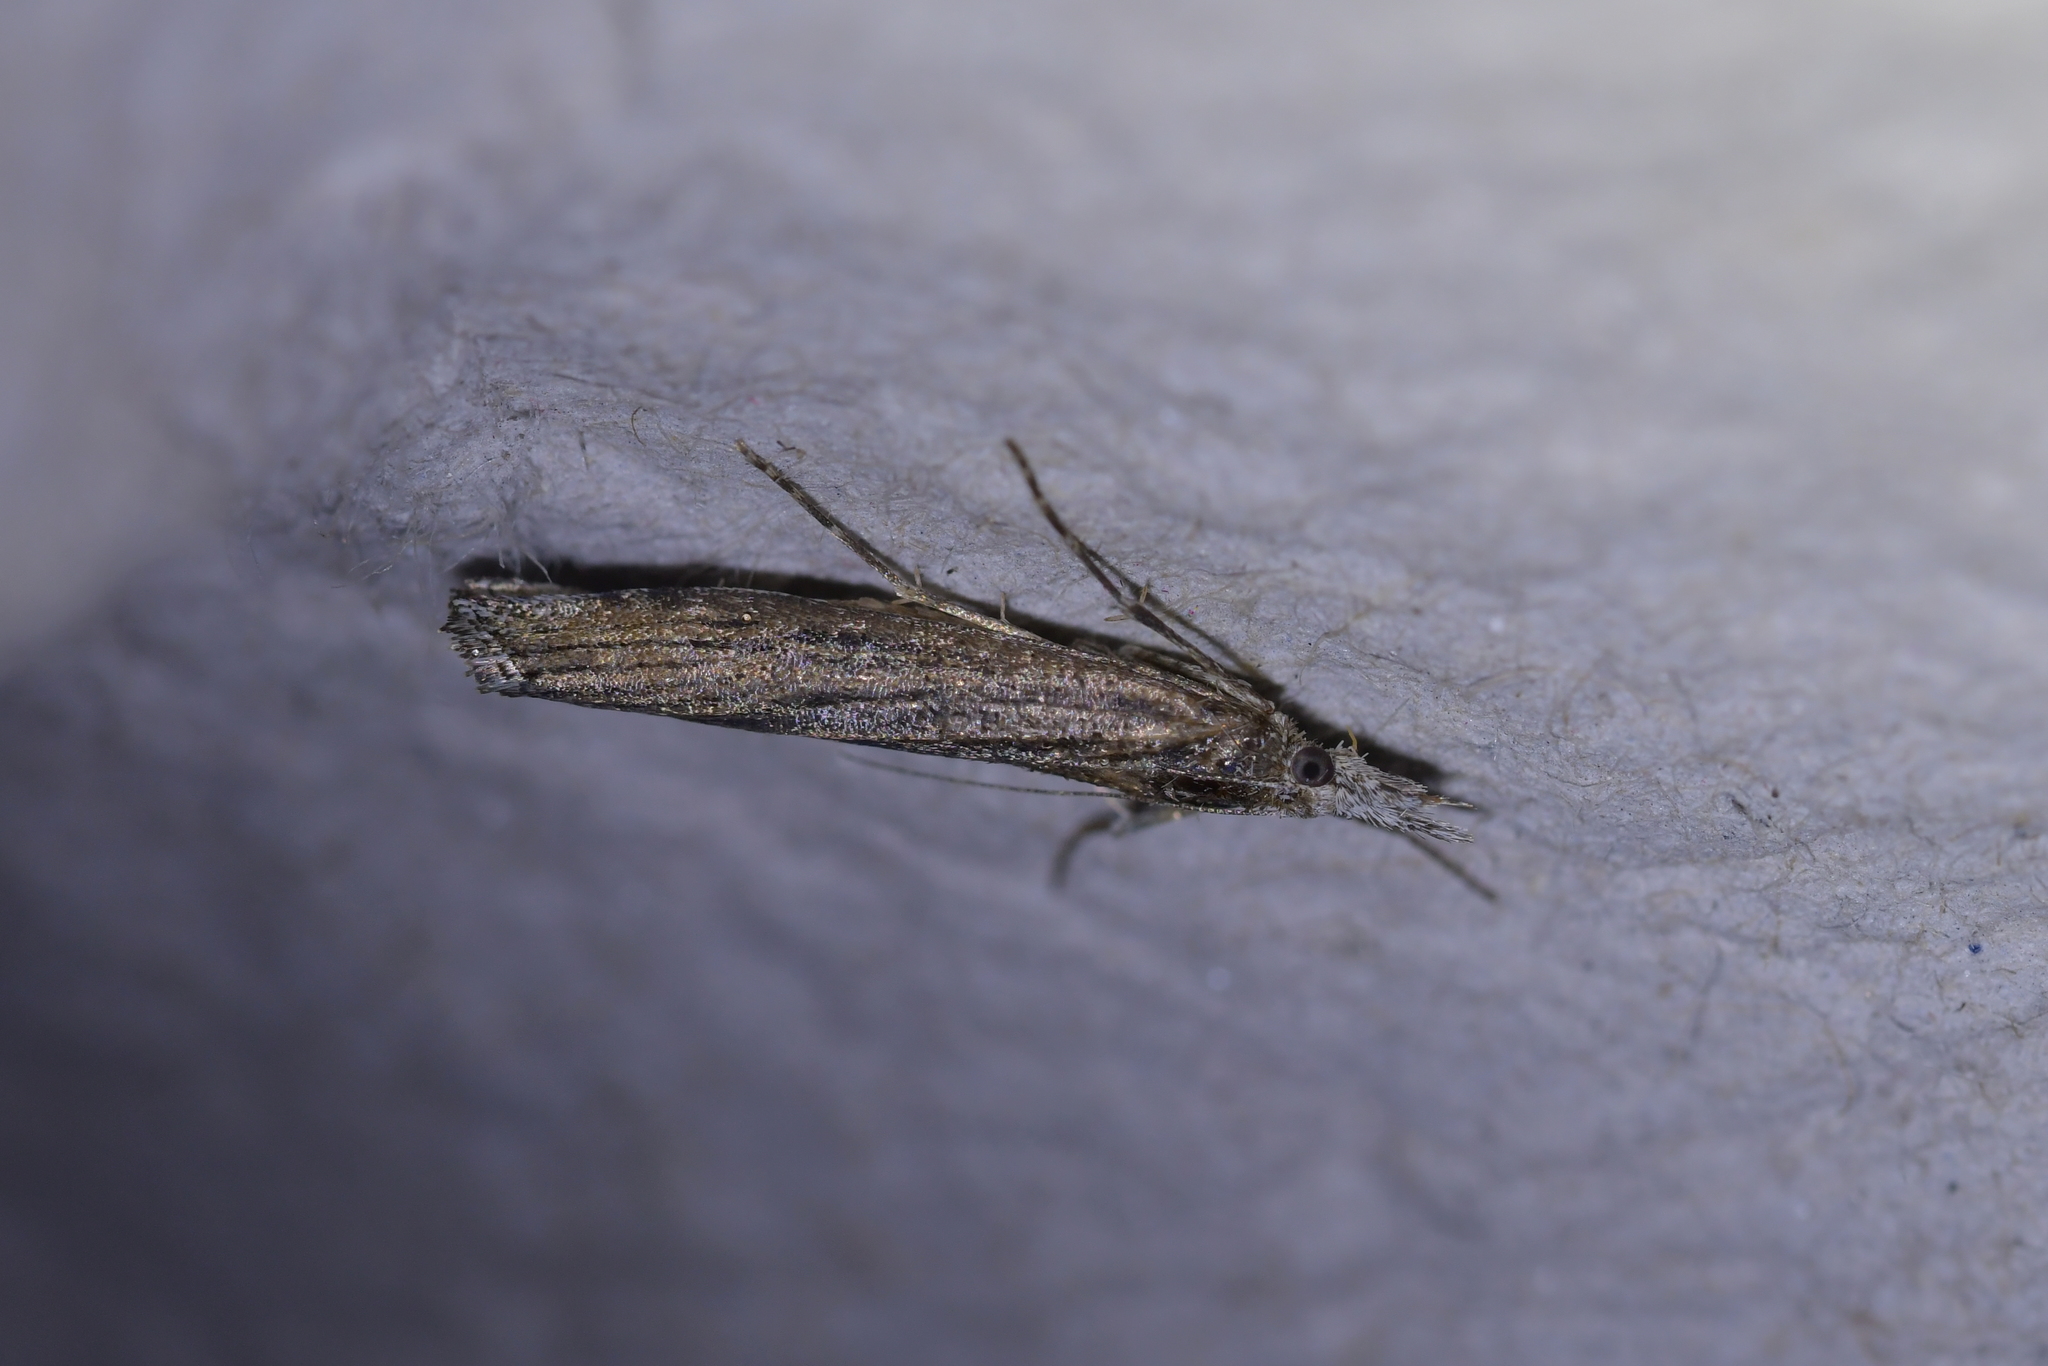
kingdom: Animalia
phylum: Arthropoda
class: Insecta
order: Lepidoptera
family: Crambidae
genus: Orocrambus
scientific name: Orocrambus cyclopicus
